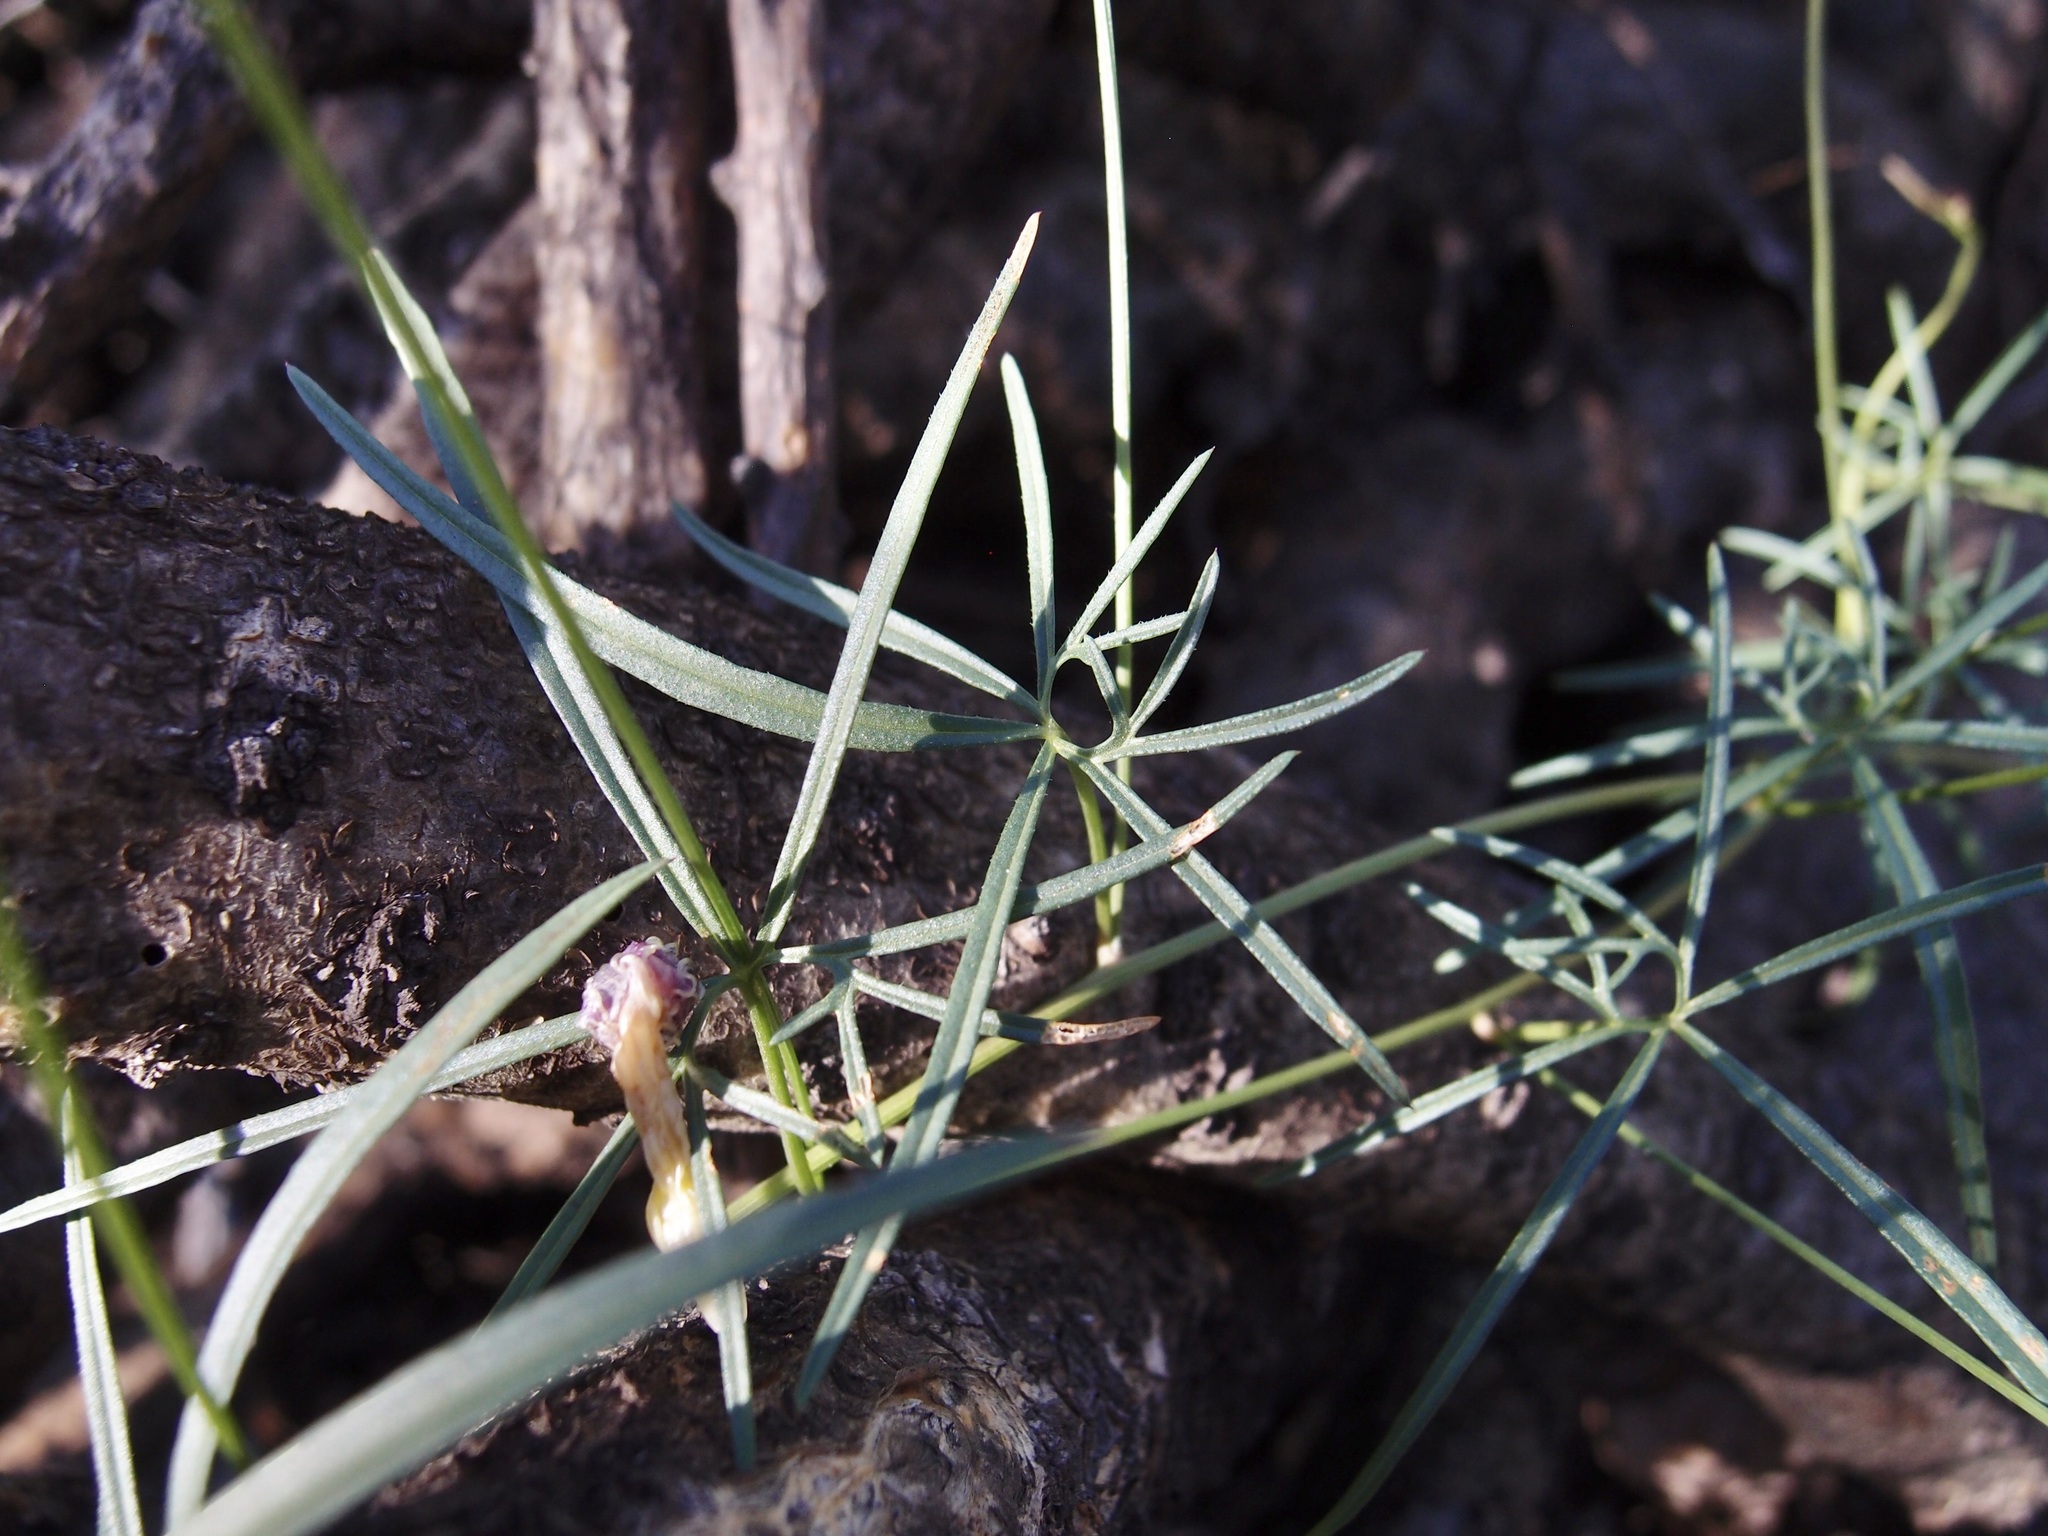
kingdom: Plantae
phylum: Tracheophyta
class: Magnoliopsida
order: Solanales
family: Convolvulaceae
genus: Ipomoea
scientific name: Ipomoea ternifolia
